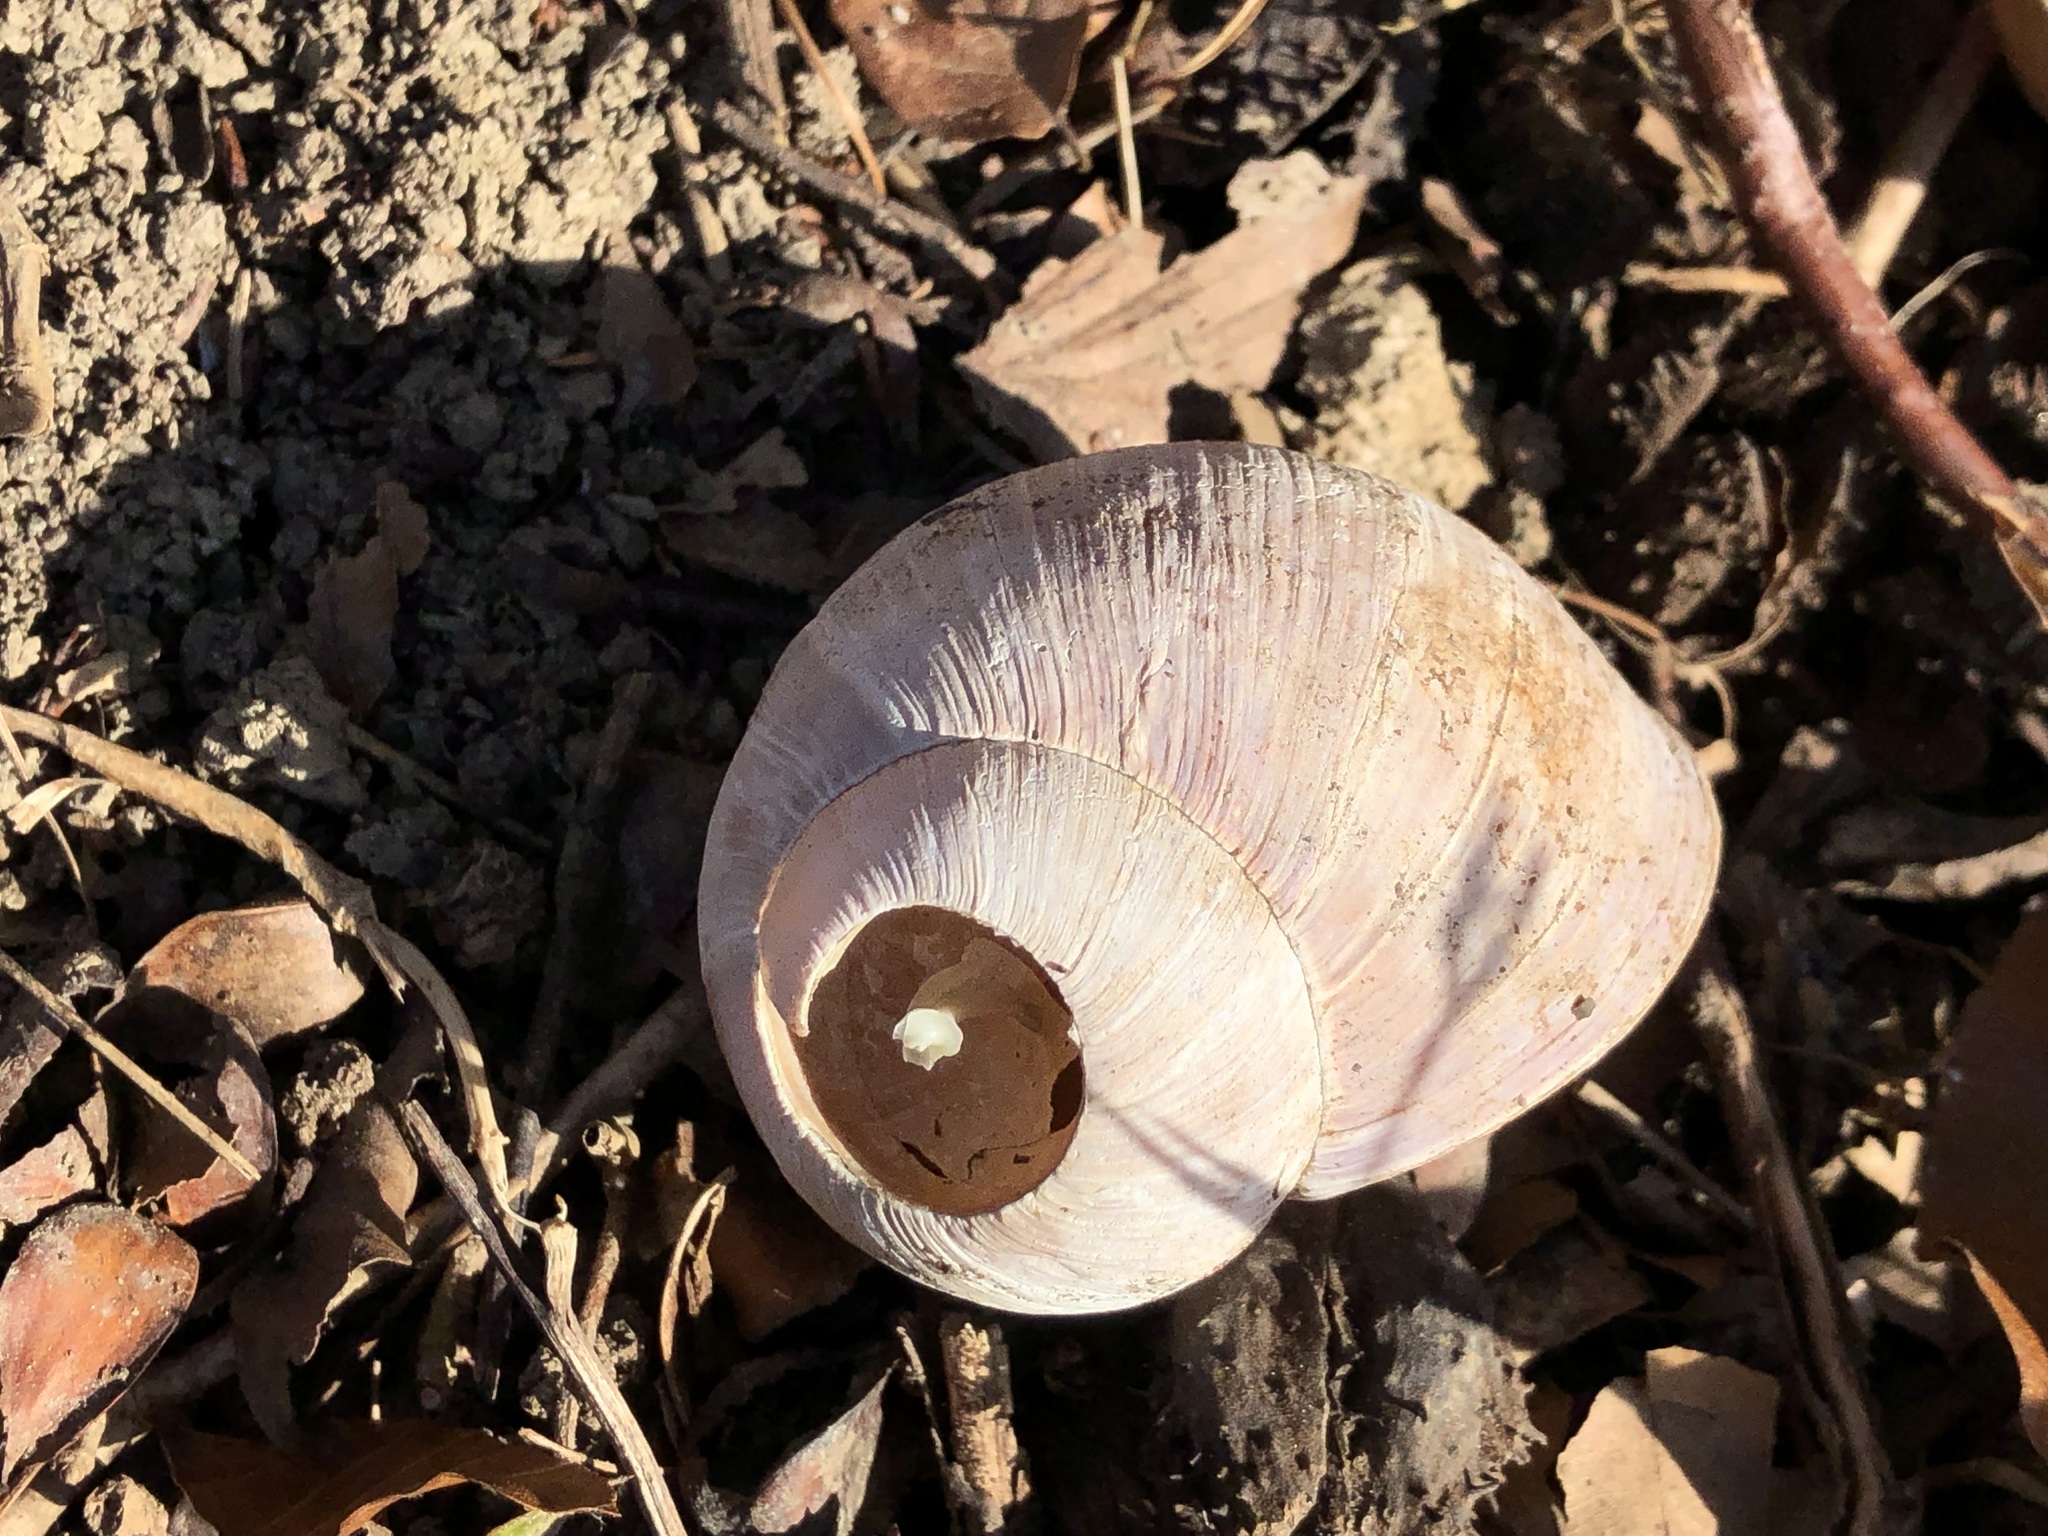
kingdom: Animalia
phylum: Mollusca
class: Gastropoda
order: Stylommatophora
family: Helicidae
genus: Helix
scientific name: Helix pomatia
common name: Roman snail
